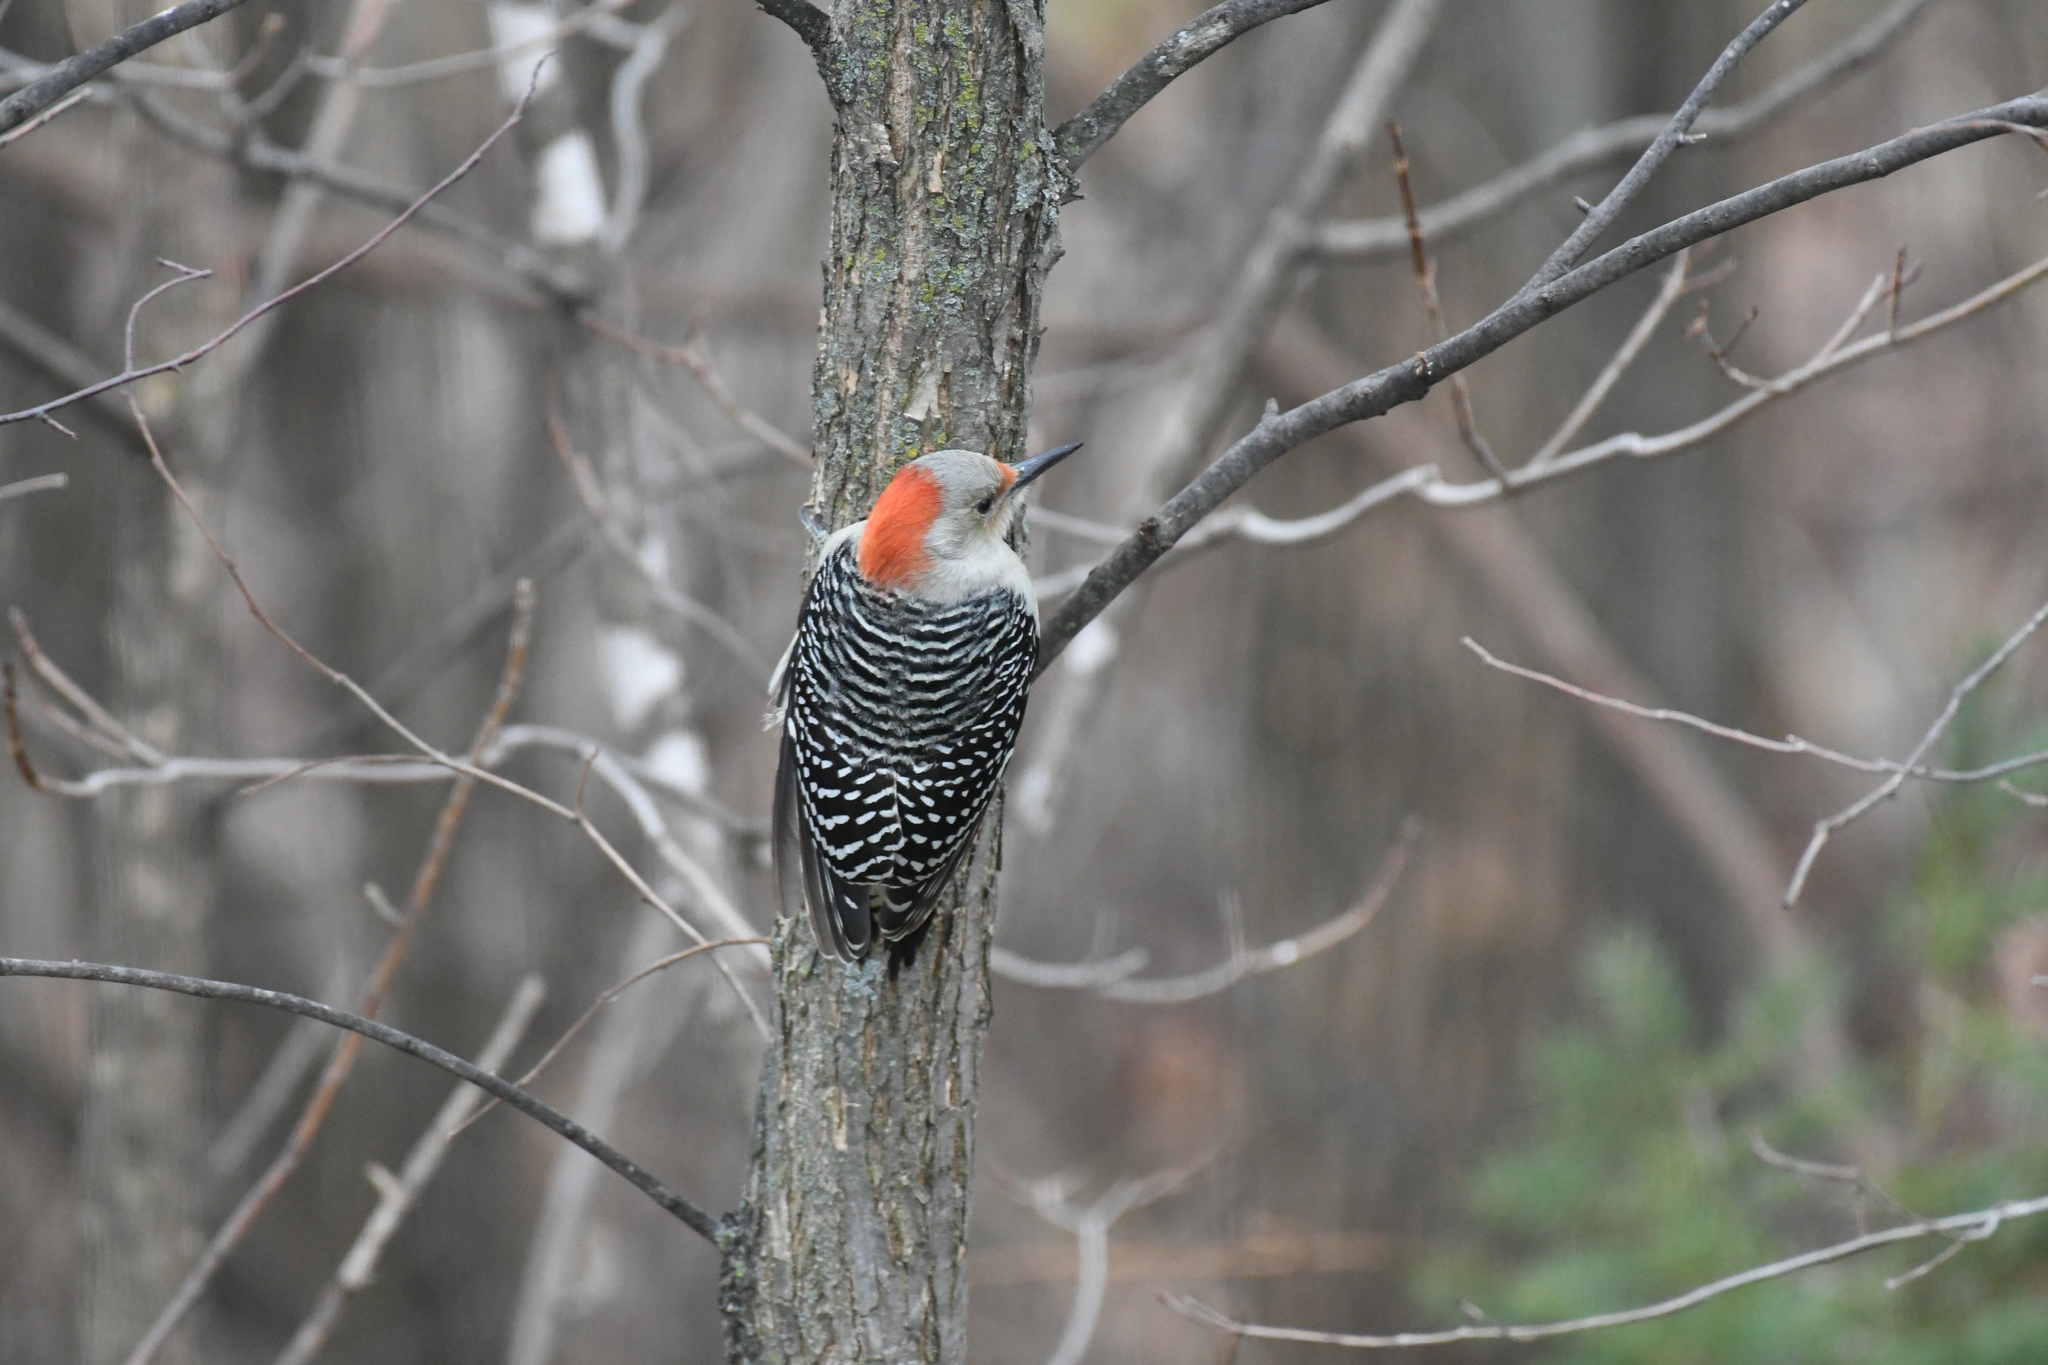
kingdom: Animalia
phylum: Chordata
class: Aves
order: Piciformes
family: Picidae
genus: Melanerpes
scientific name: Melanerpes carolinus
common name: Red-bellied woodpecker
